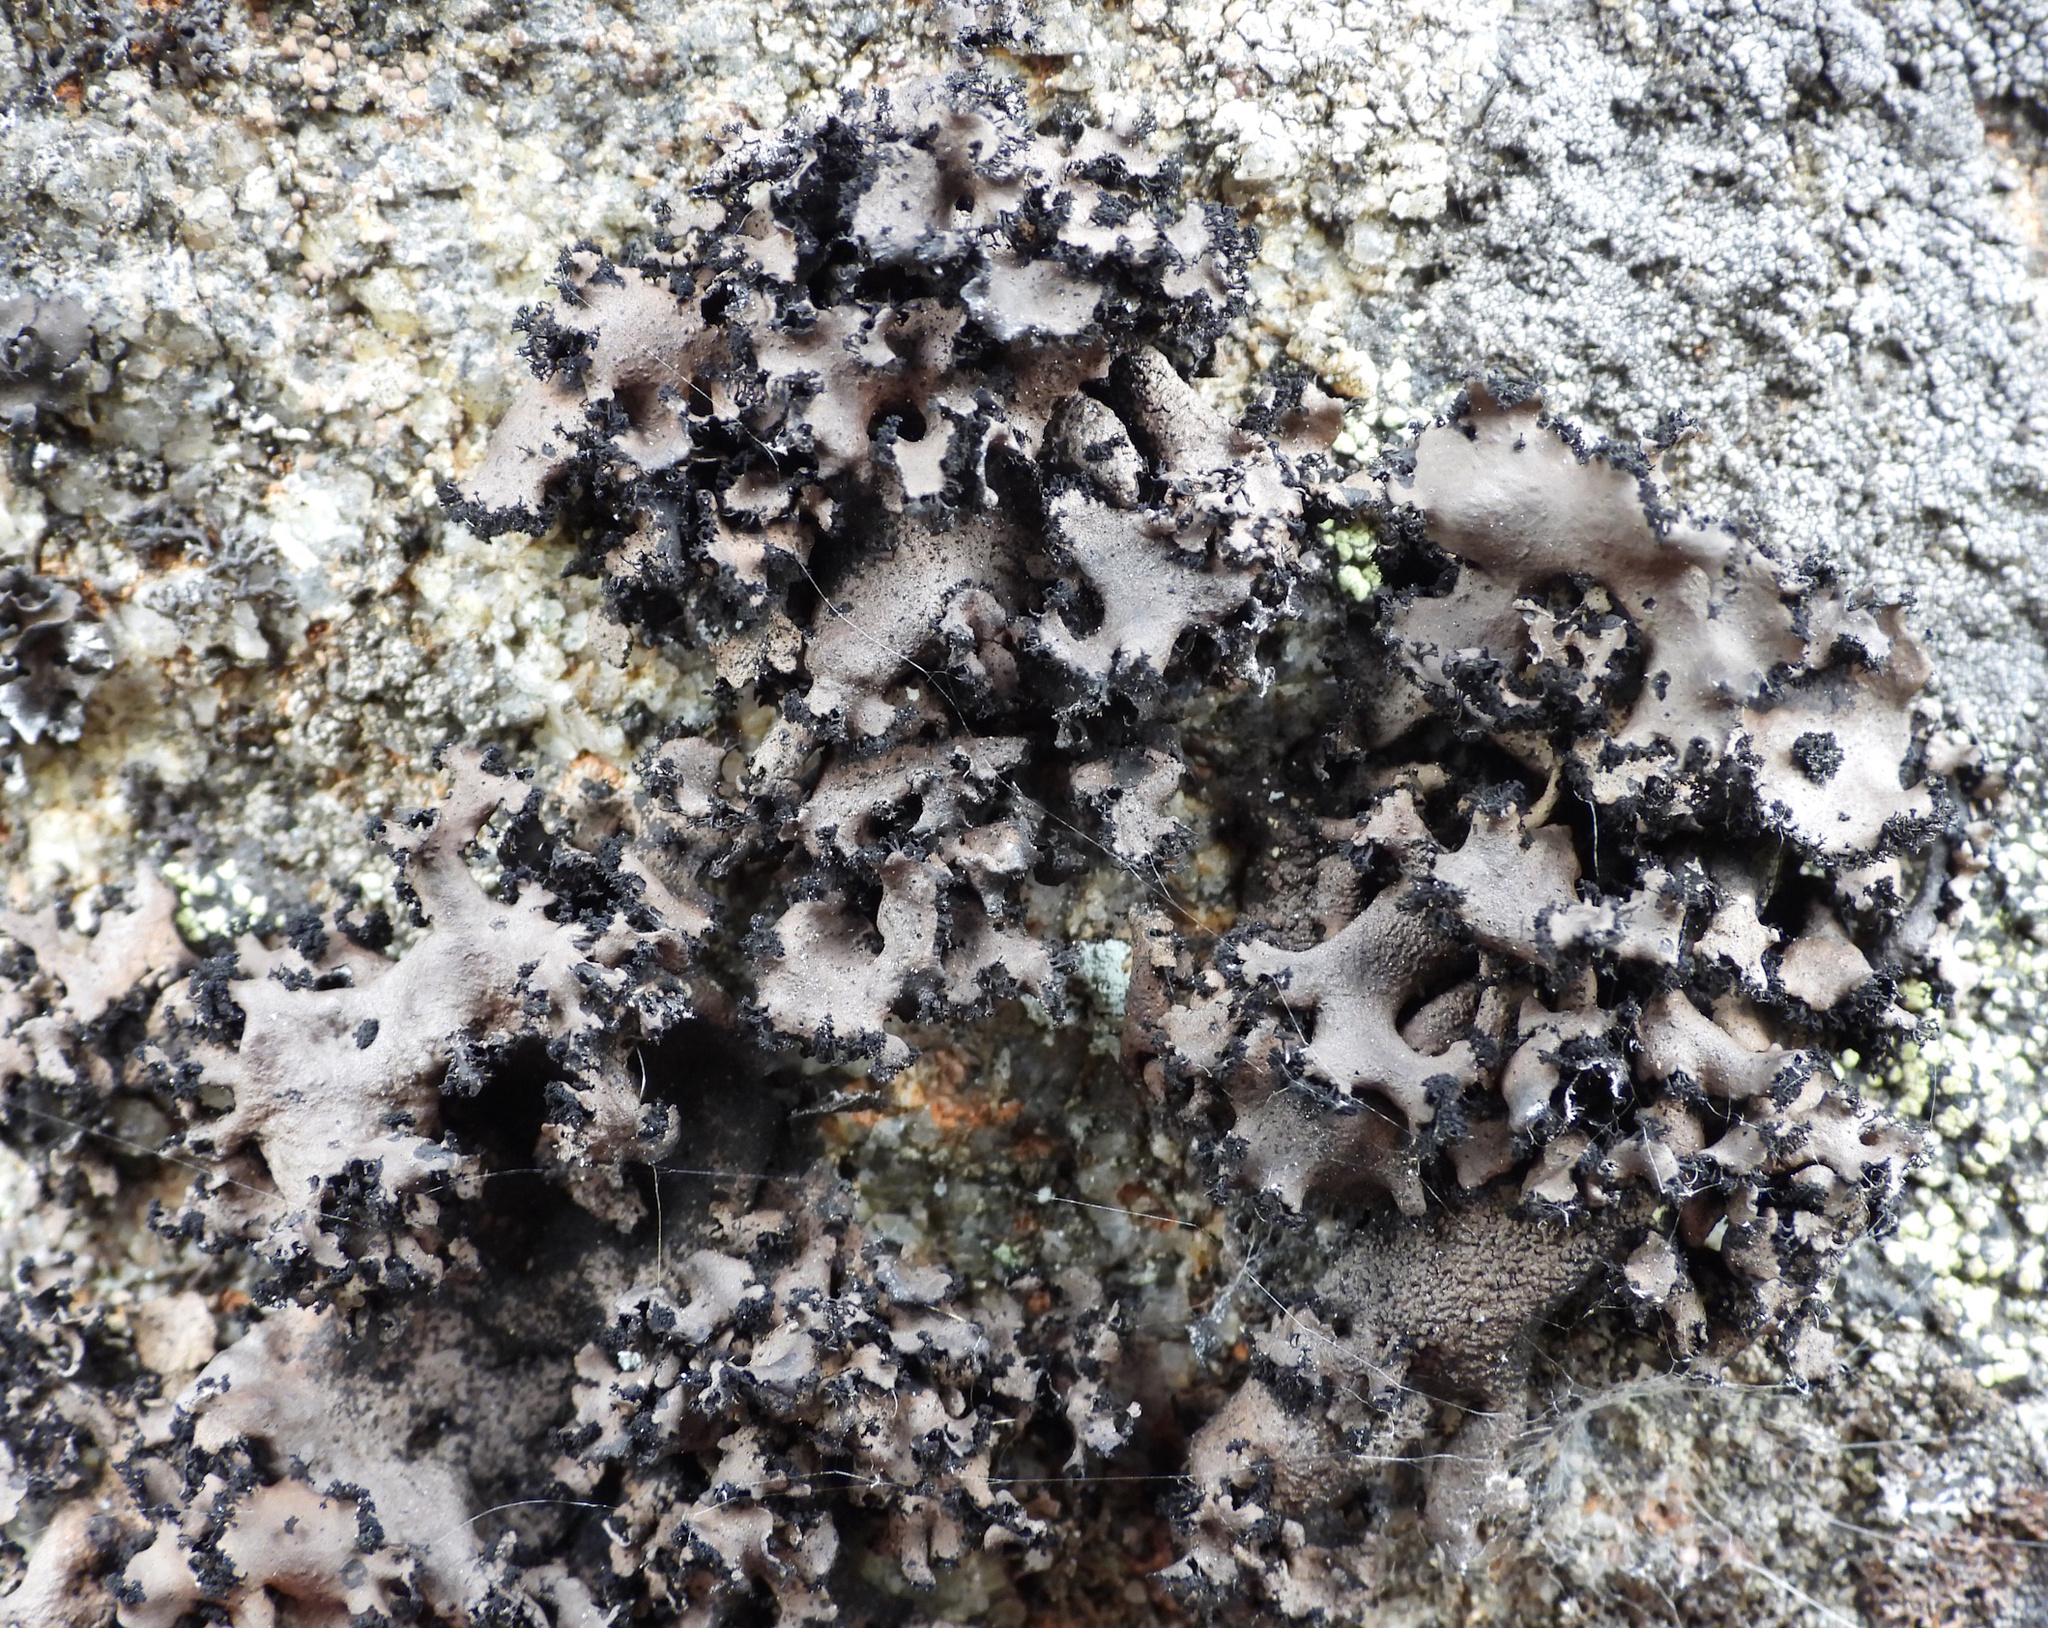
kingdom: Fungi
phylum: Ascomycota
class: Lecanoromycetes
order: Umbilicariales
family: Umbilicariaceae
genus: Umbilicaria
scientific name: Umbilicaria polyrrhiza
